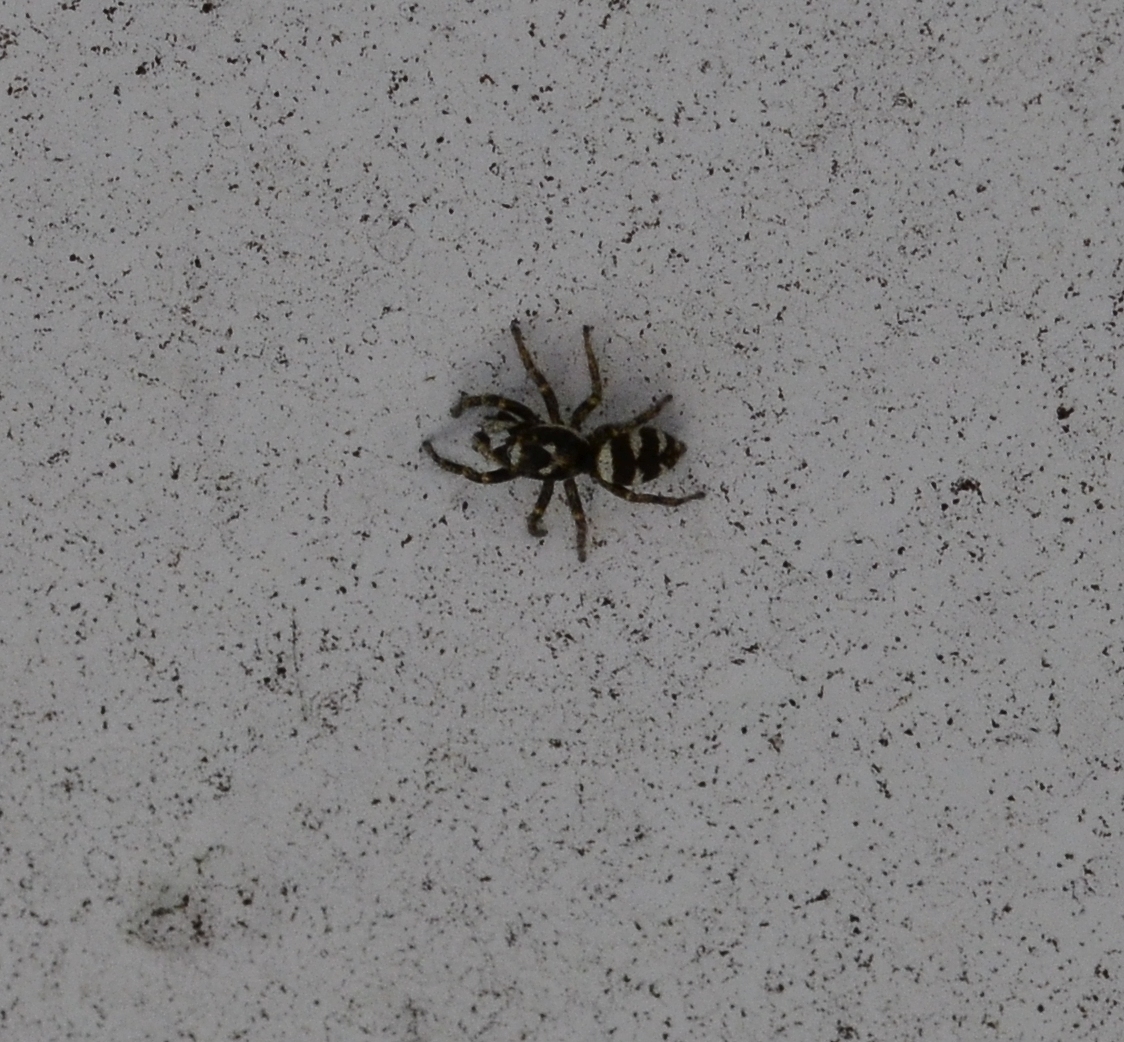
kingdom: Animalia
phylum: Arthropoda
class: Arachnida
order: Araneae
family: Salticidae
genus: Salticus
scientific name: Salticus scenicus
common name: Zebra jumper
